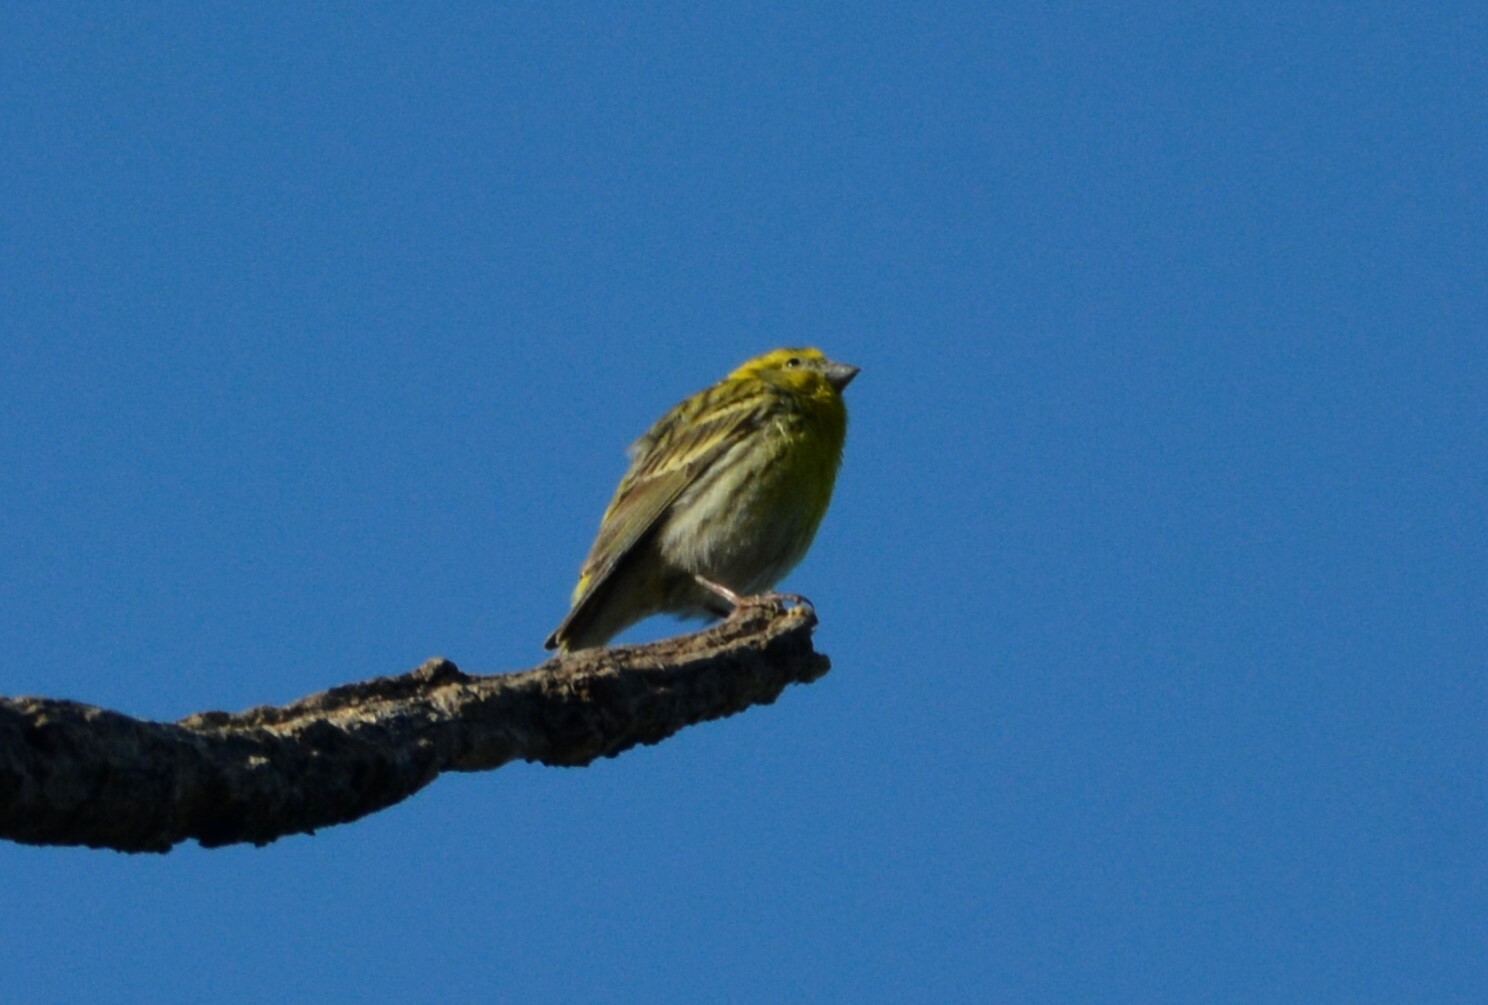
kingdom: Animalia
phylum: Chordata
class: Aves
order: Passeriformes
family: Fringillidae
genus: Serinus
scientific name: Serinus serinus
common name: European serin
